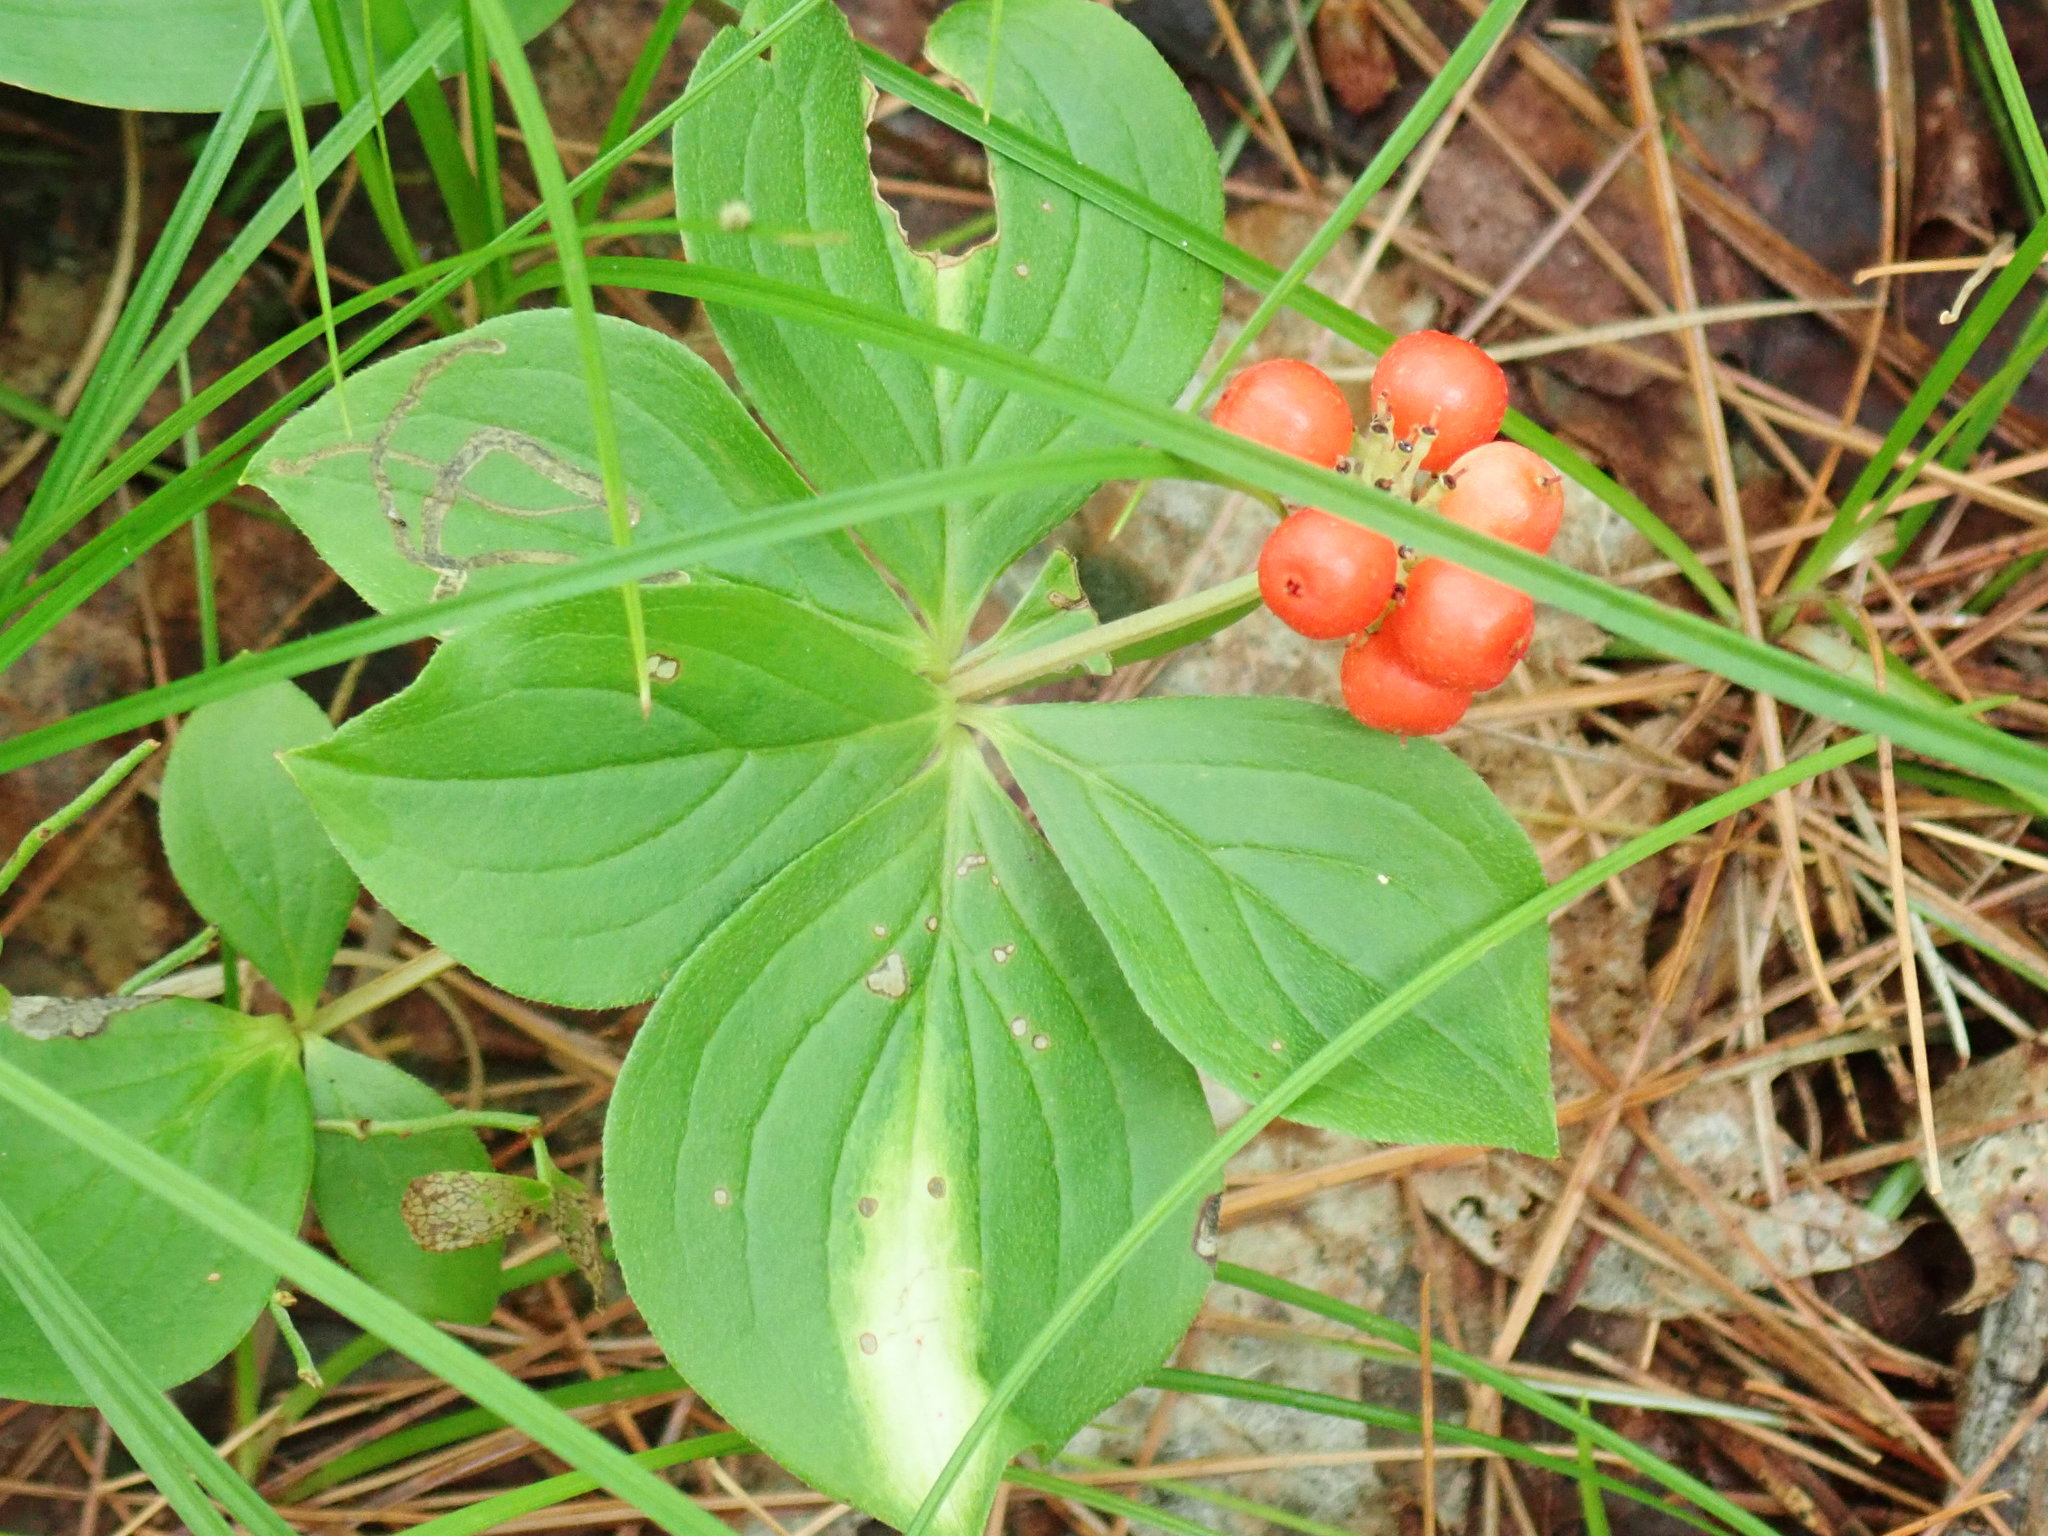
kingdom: Plantae
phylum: Tracheophyta
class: Magnoliopsida
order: Cornales
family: Cornaceae
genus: Cornus
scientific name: Cornus canadensis
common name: Creeping dogwood
